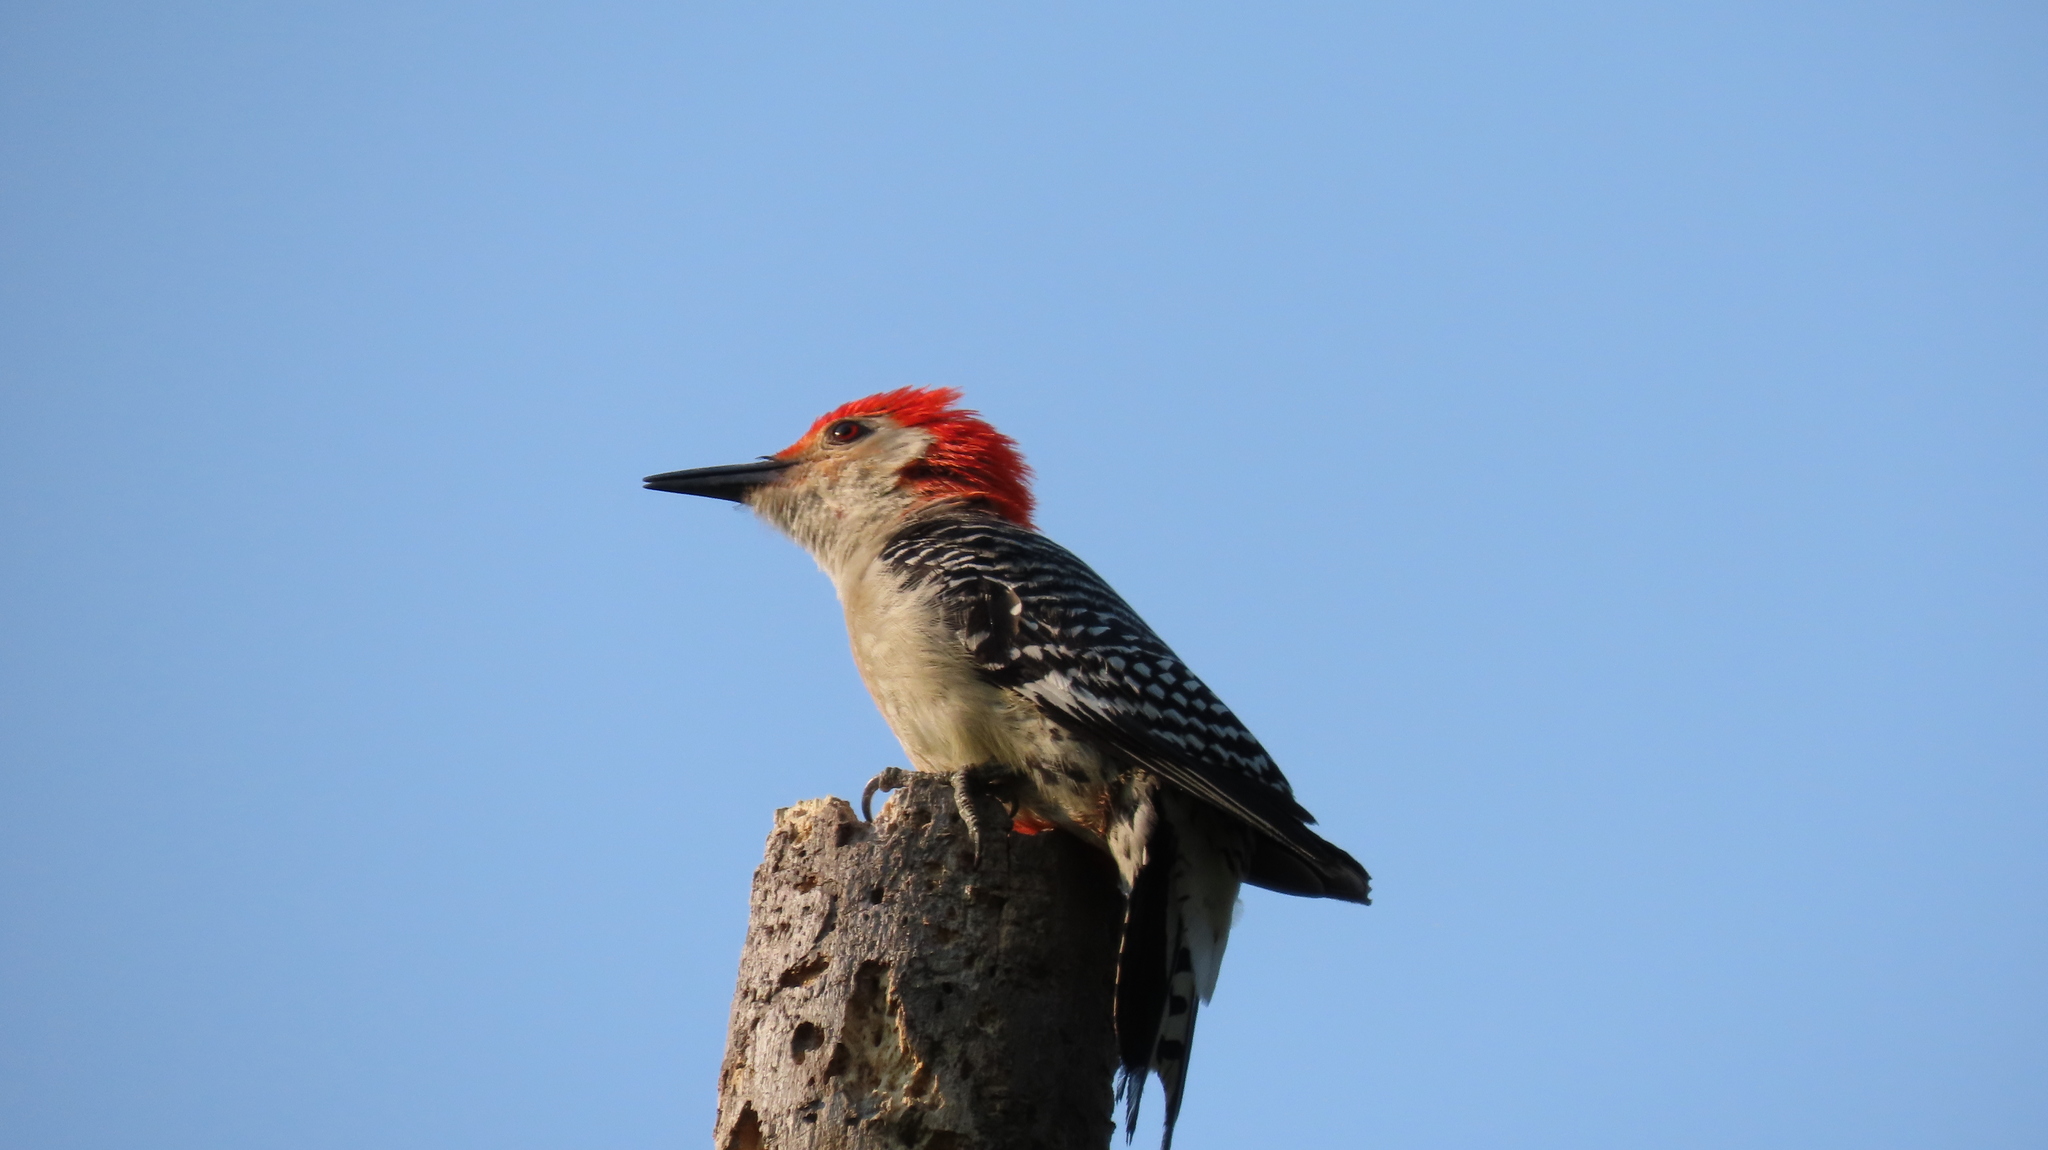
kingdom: Animalia
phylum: Chordata
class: Aves
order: Piciformes
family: Picidae
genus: Melanerpes
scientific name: Melanerpes carolinus
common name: Red-bellied woodpecker
